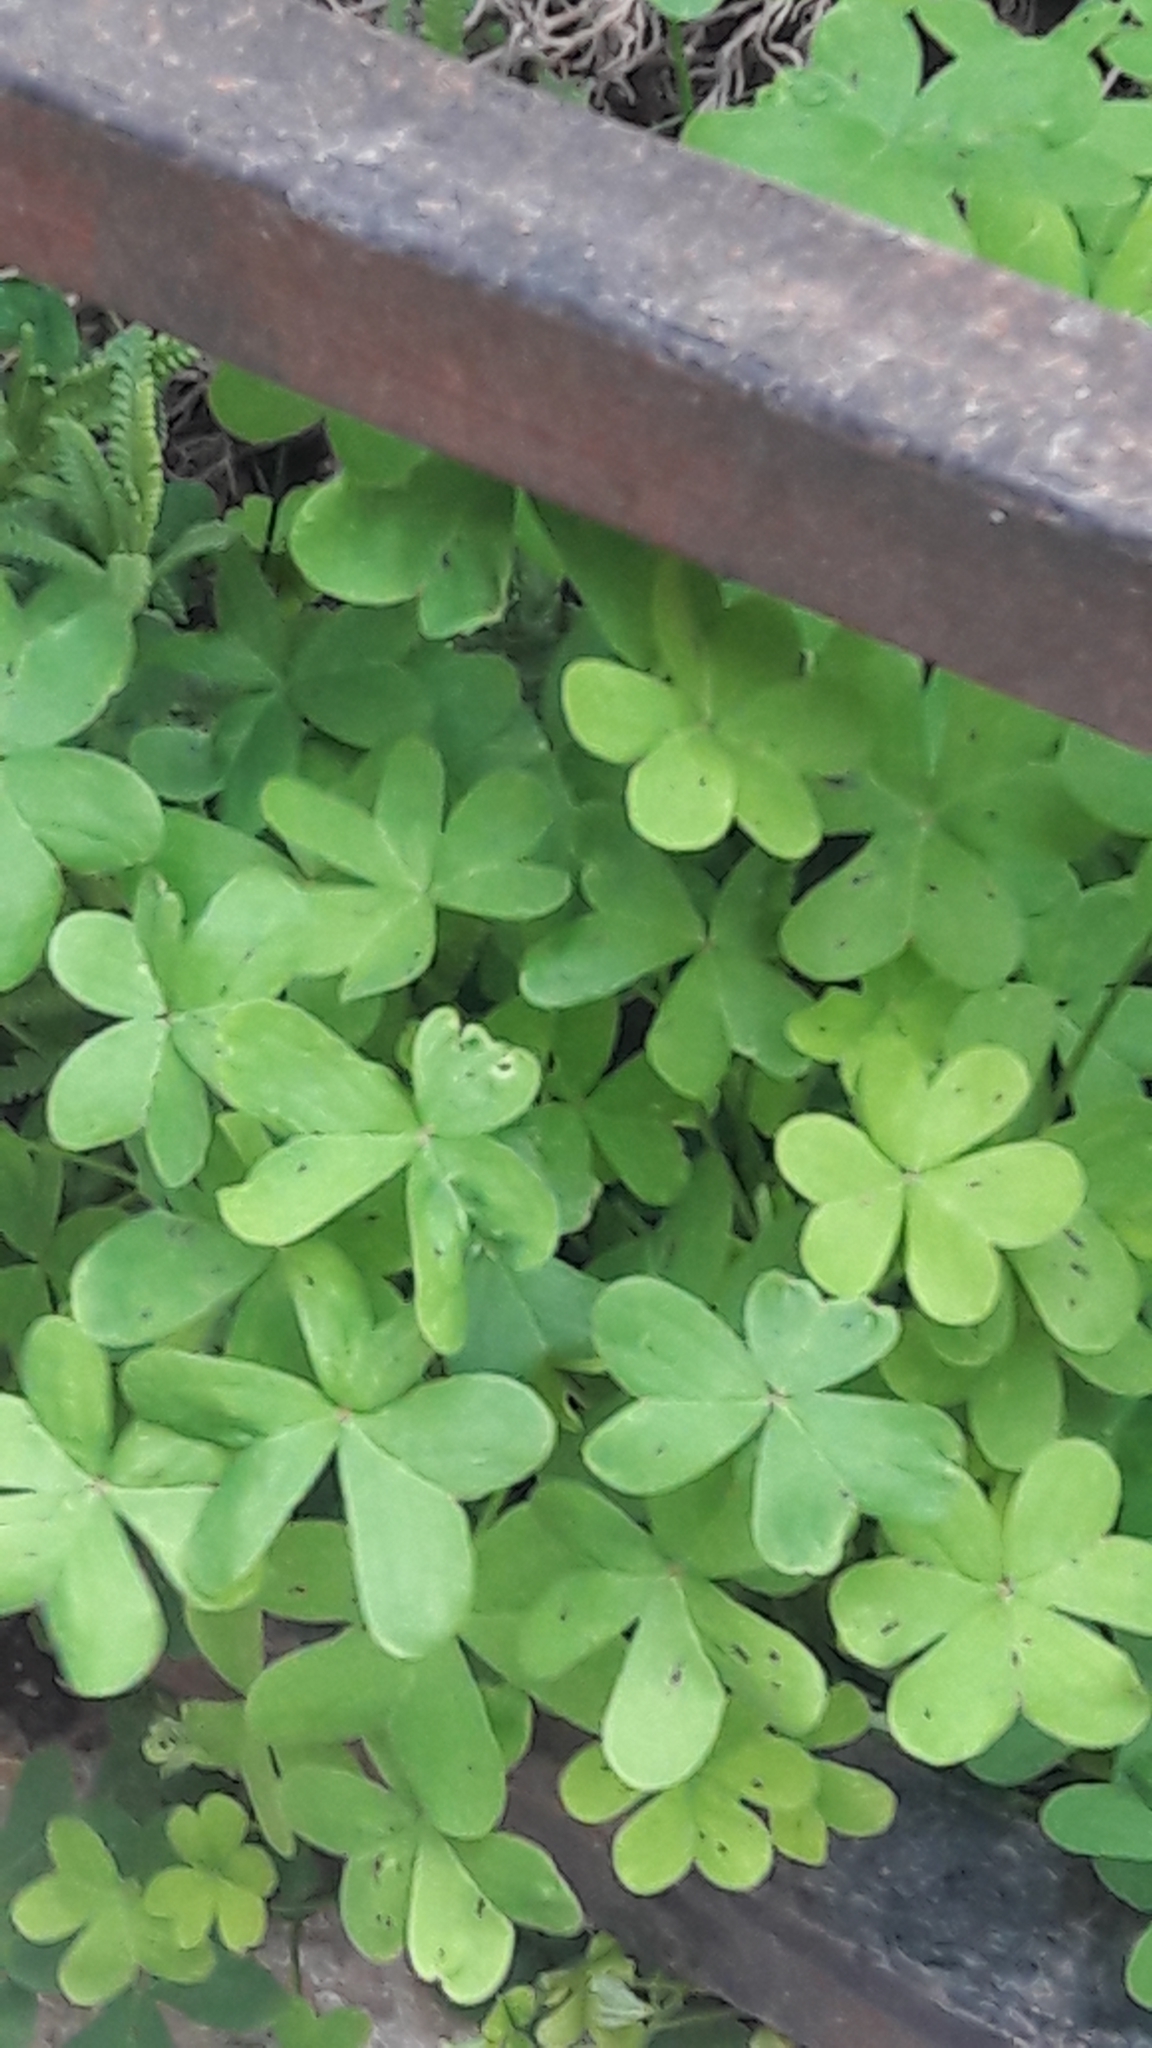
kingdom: Plantae
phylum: Tracheophyta
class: Magnoliopsida
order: Oxalidales
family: Oxalidaceae
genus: Oxalis
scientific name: Oxalis pes-caprae
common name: Bermuda-buttercup
